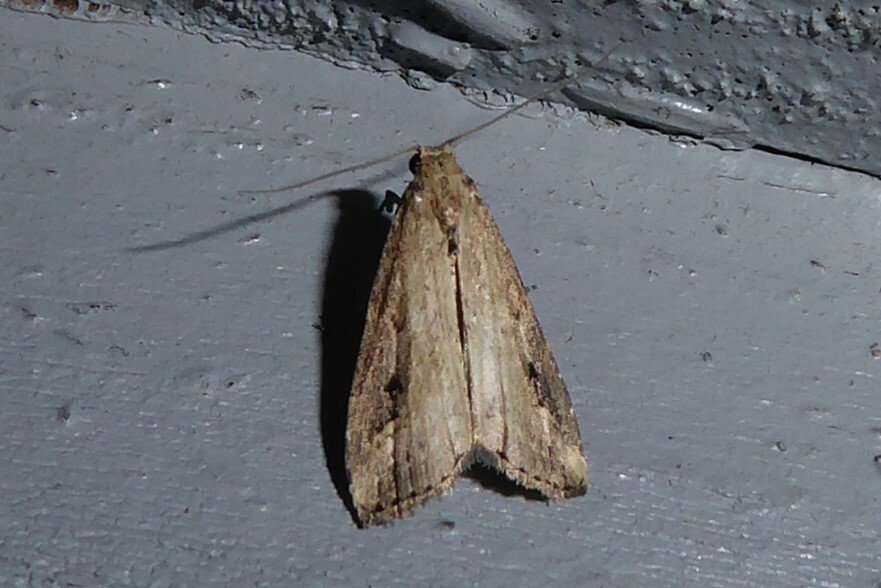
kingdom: Animalia
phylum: Arthropoda
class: Insecta
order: Lepidoptera
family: Erebidae
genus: Schrankia
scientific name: Schrankia costaestrigalis
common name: Pinion-streaked snout
